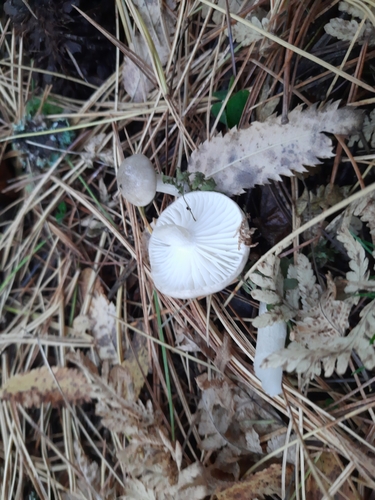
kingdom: Fungi
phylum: Basidiomycota
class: Agaricomycetes
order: Agaricales
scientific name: Agaricales
